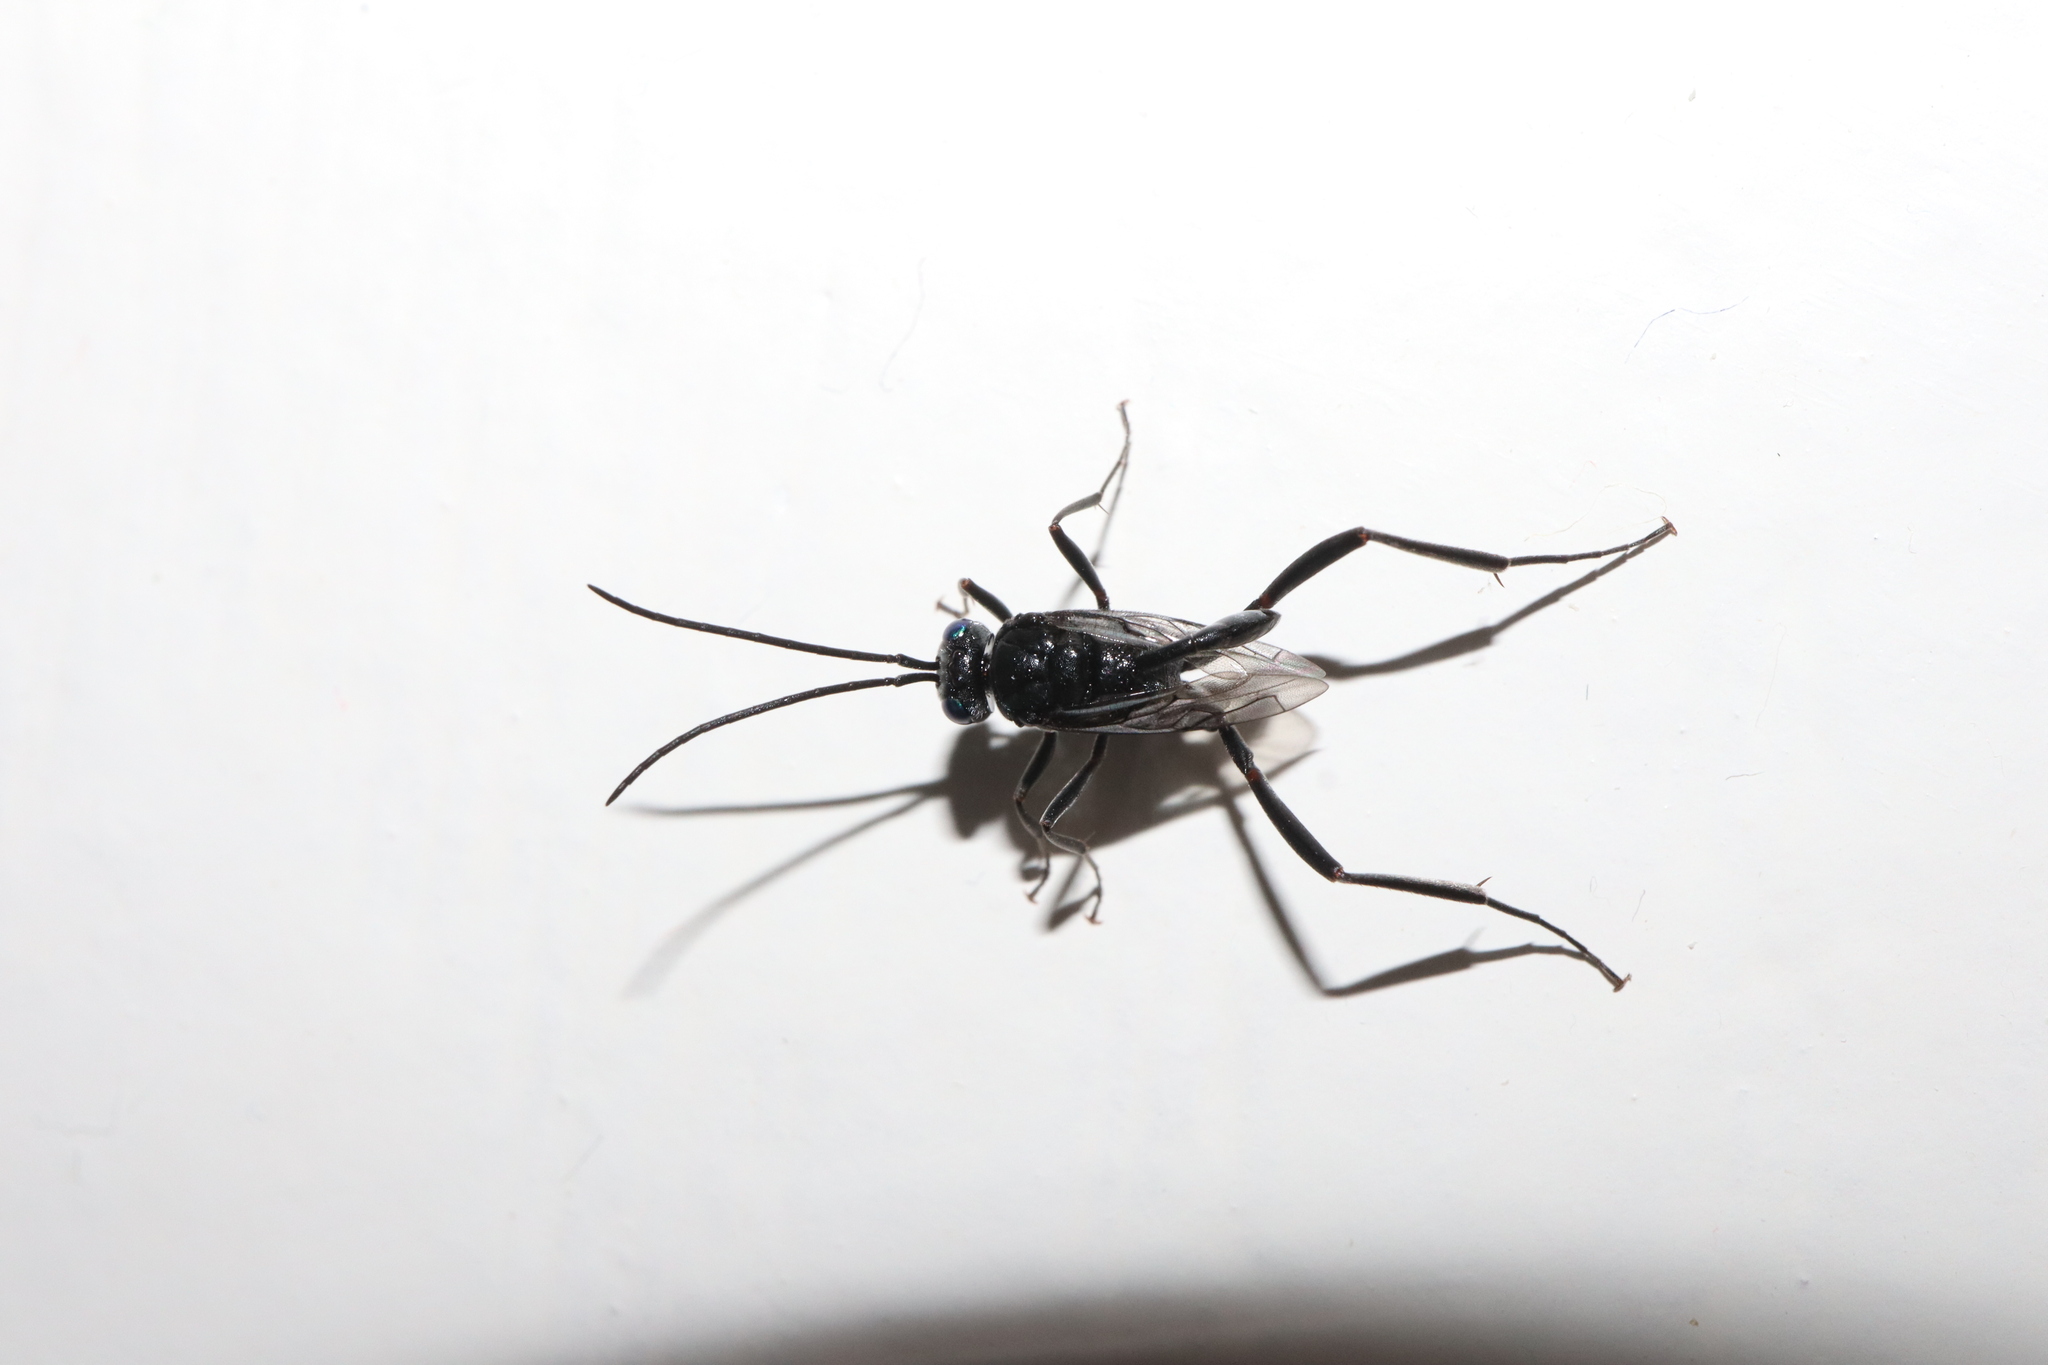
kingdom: Animalia
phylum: Arthropoda
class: Insecta
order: Hymenoptera
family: Evaniidae
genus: Evania
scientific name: Evania appendigaster
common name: Ensign wasp
